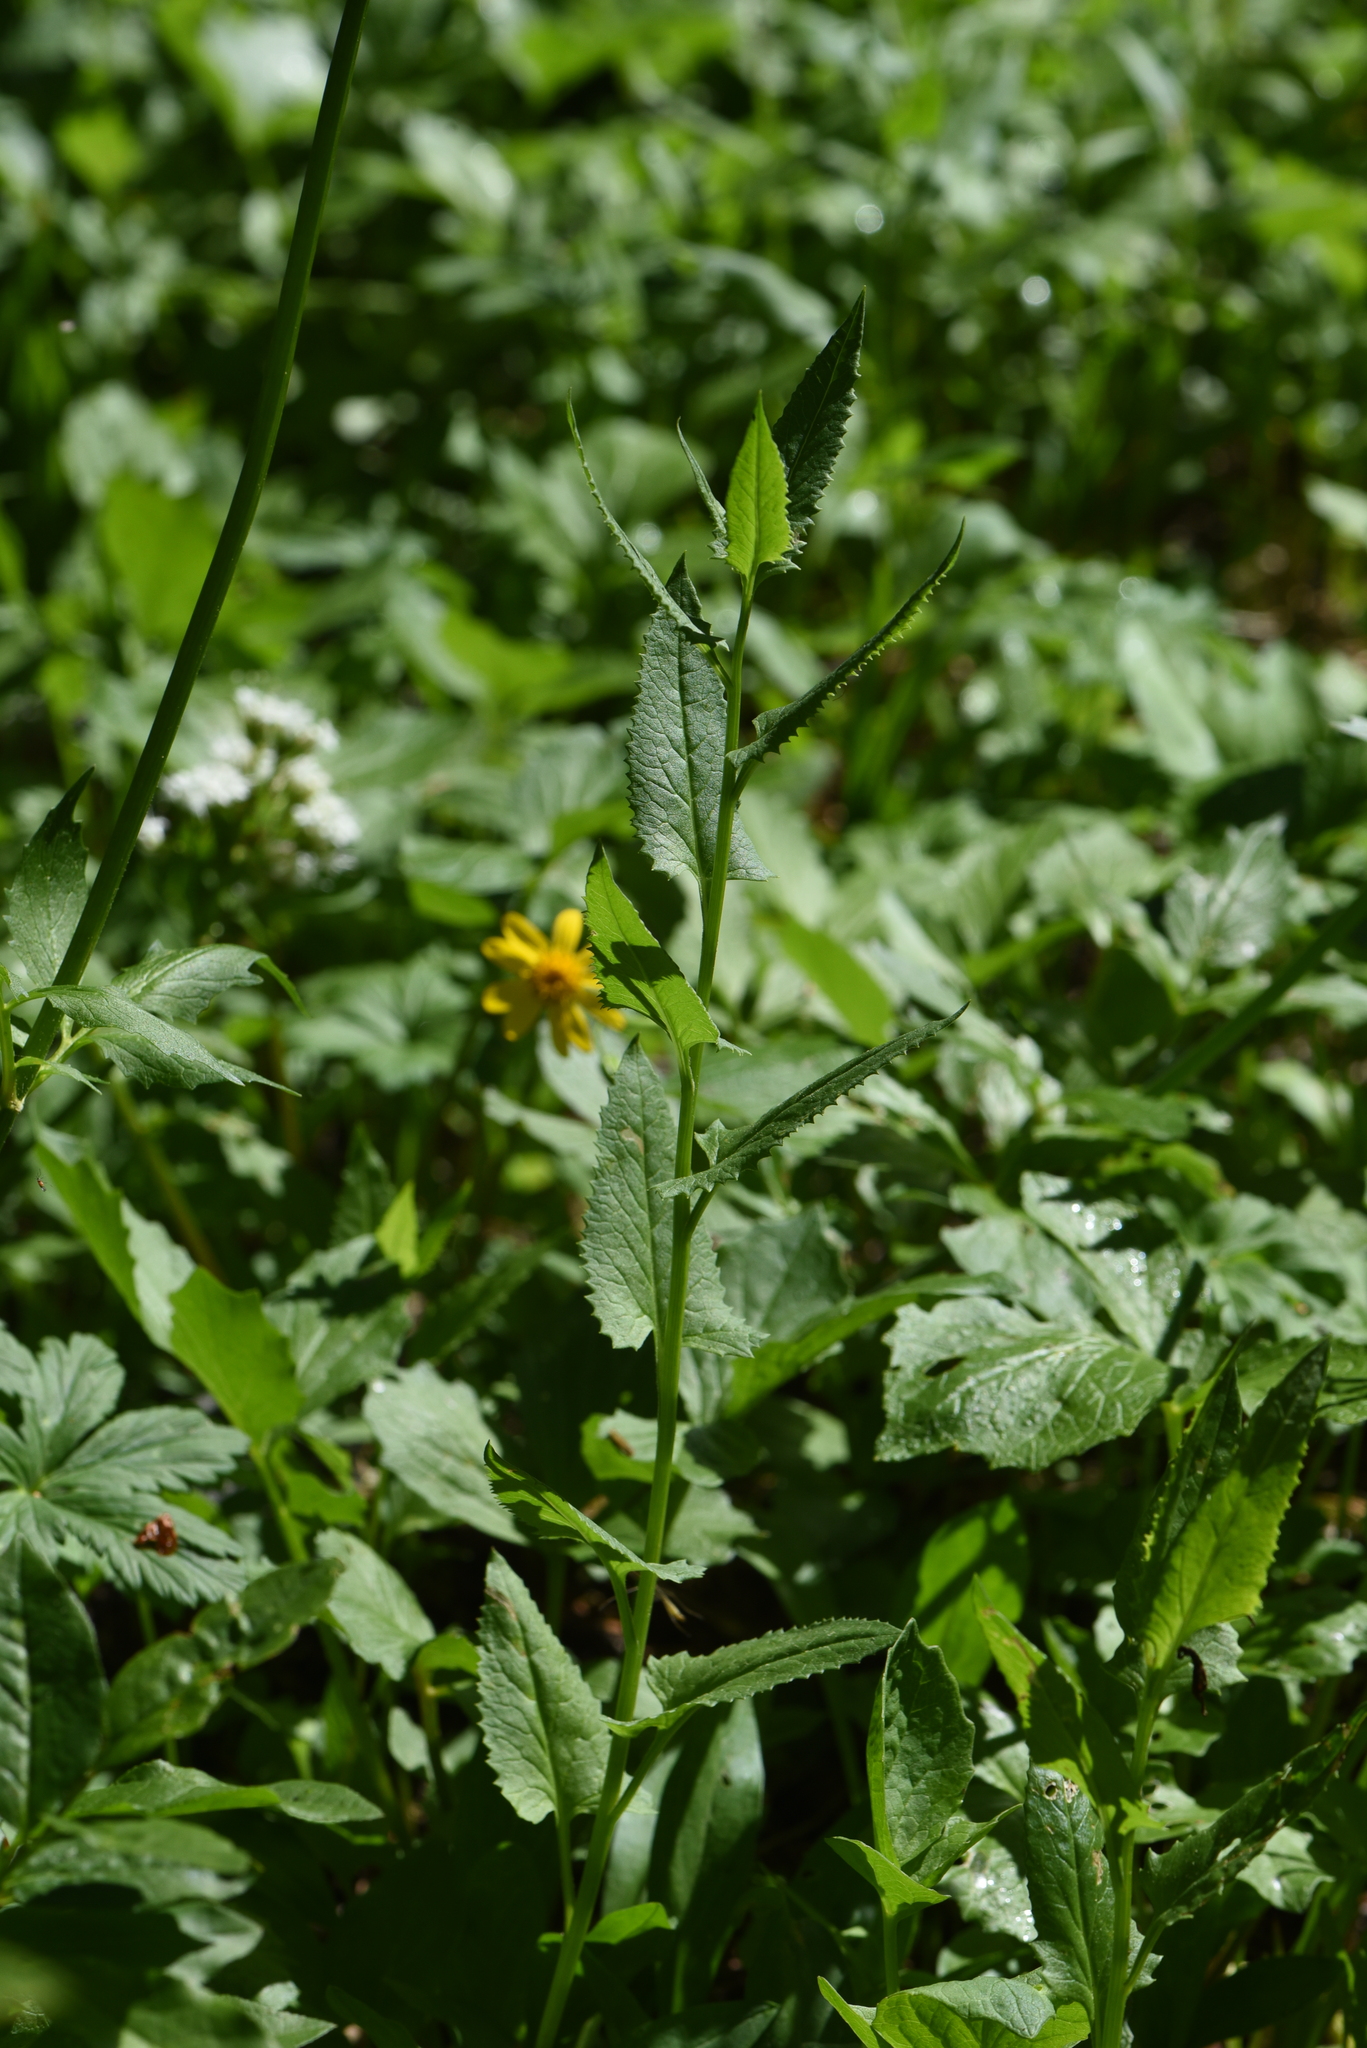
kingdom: Plantae
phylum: Tracheophyta
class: Magnoliopsida
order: Asterales
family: Asteraceae
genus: Senecio
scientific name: Senecio triangularis
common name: Arrowleaf butterweed
